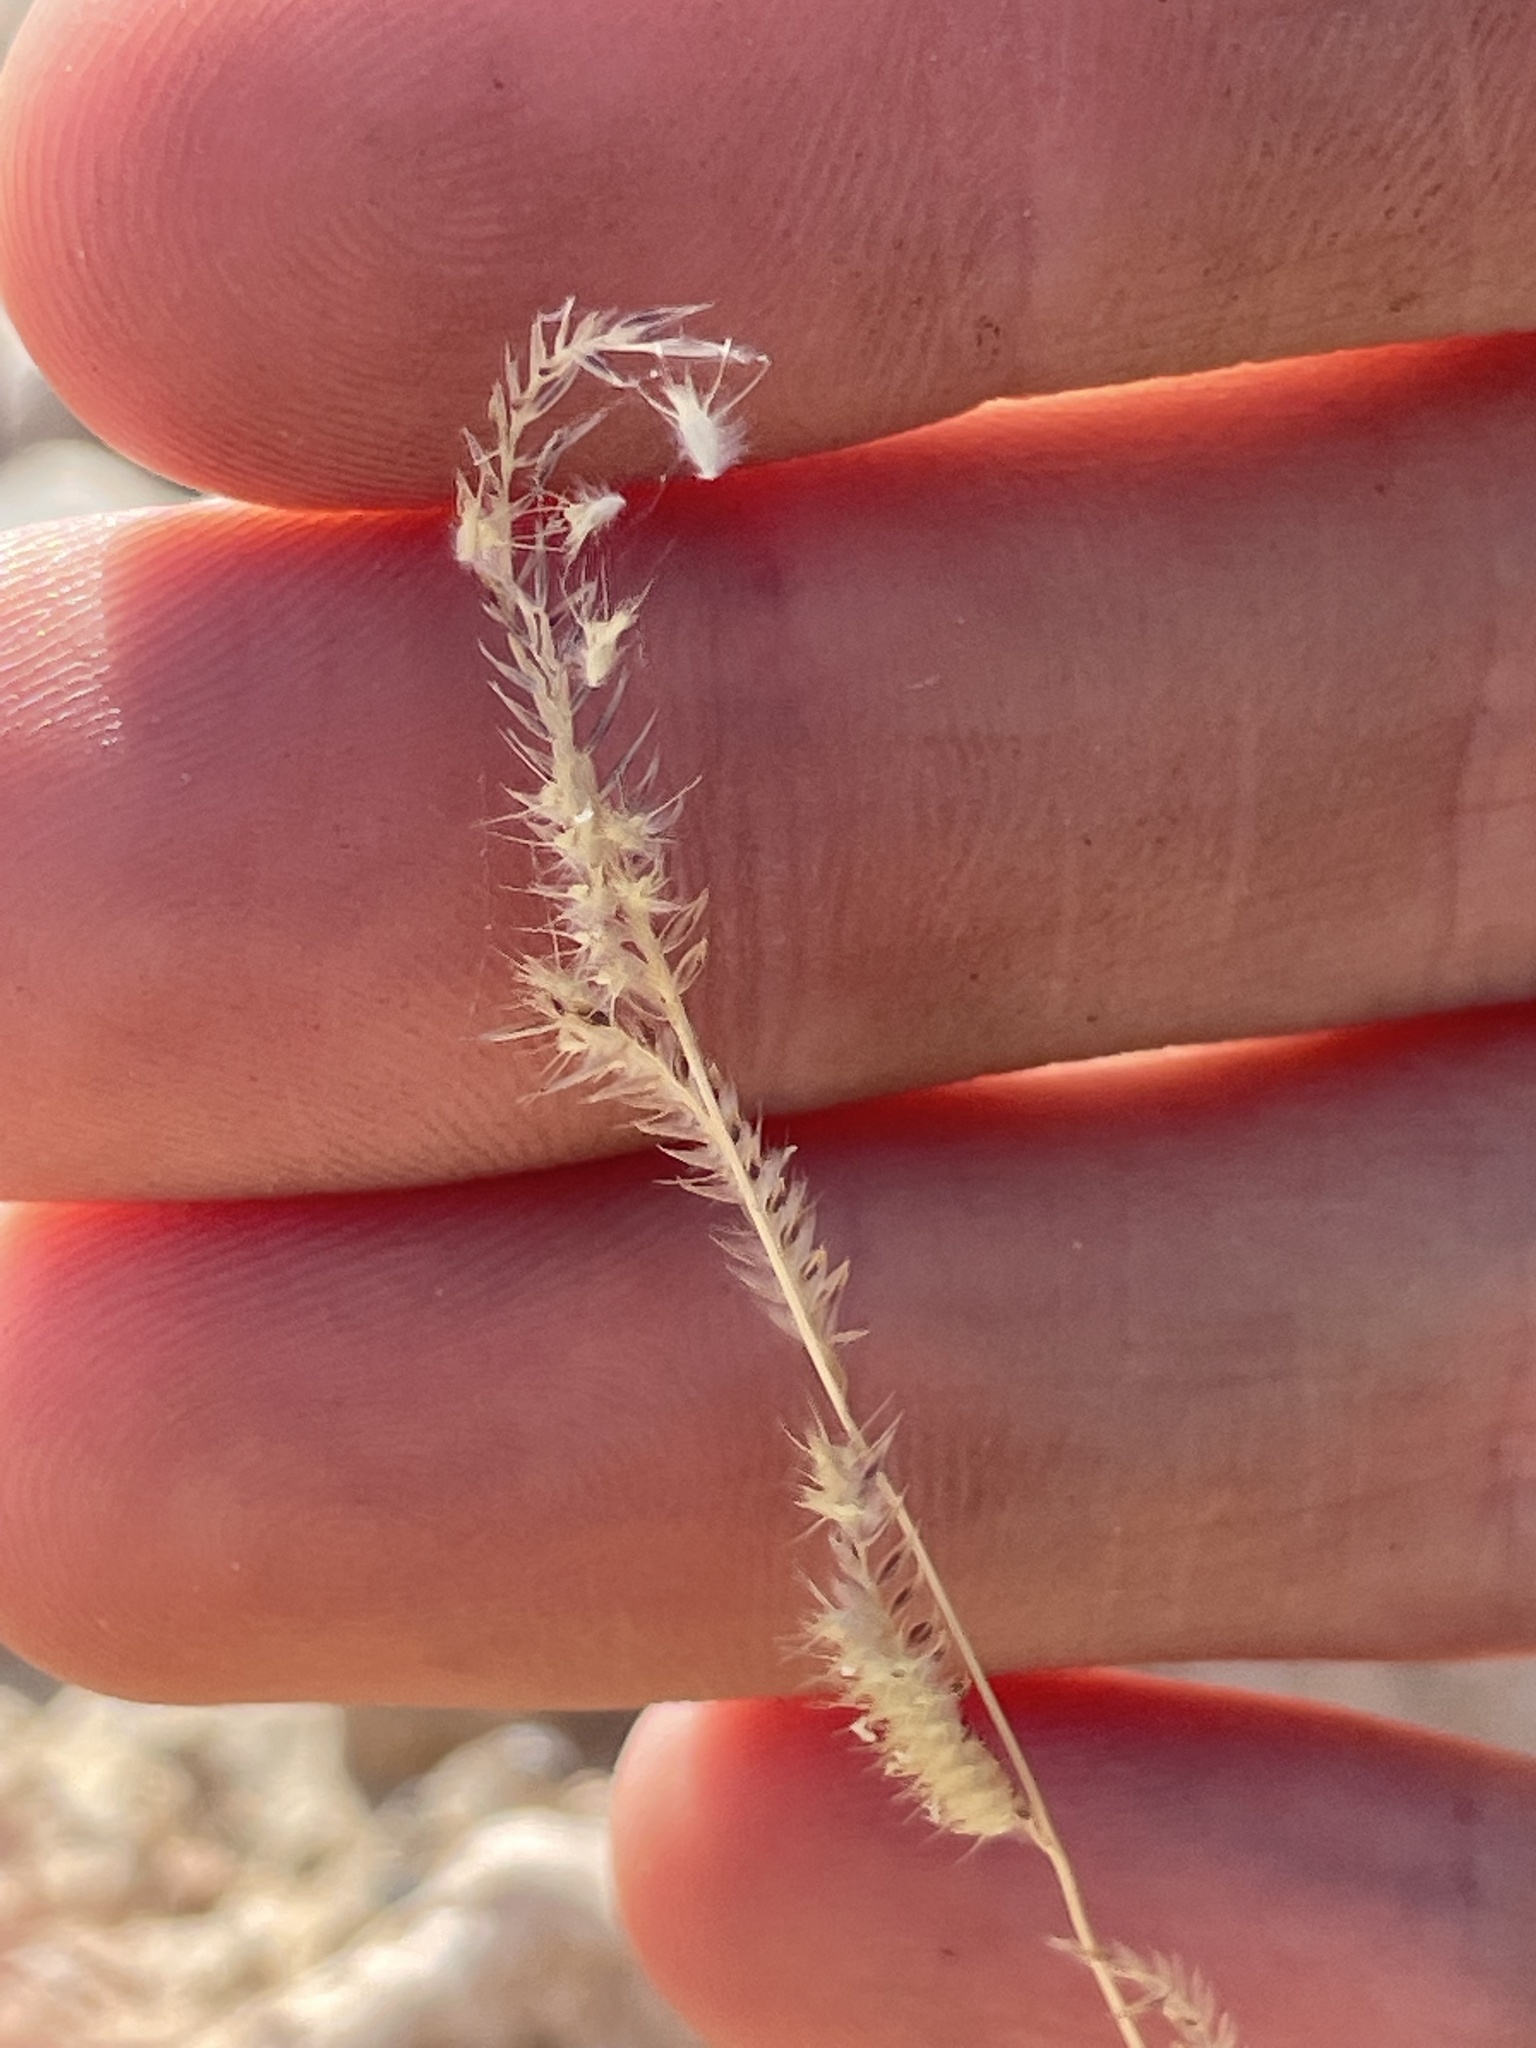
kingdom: Plantae
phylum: Tracheophyta
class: Liliopsida
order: Poales
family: Poaceae
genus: Bouteloua
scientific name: Bouteloua barbata
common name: Six-weeks grama
